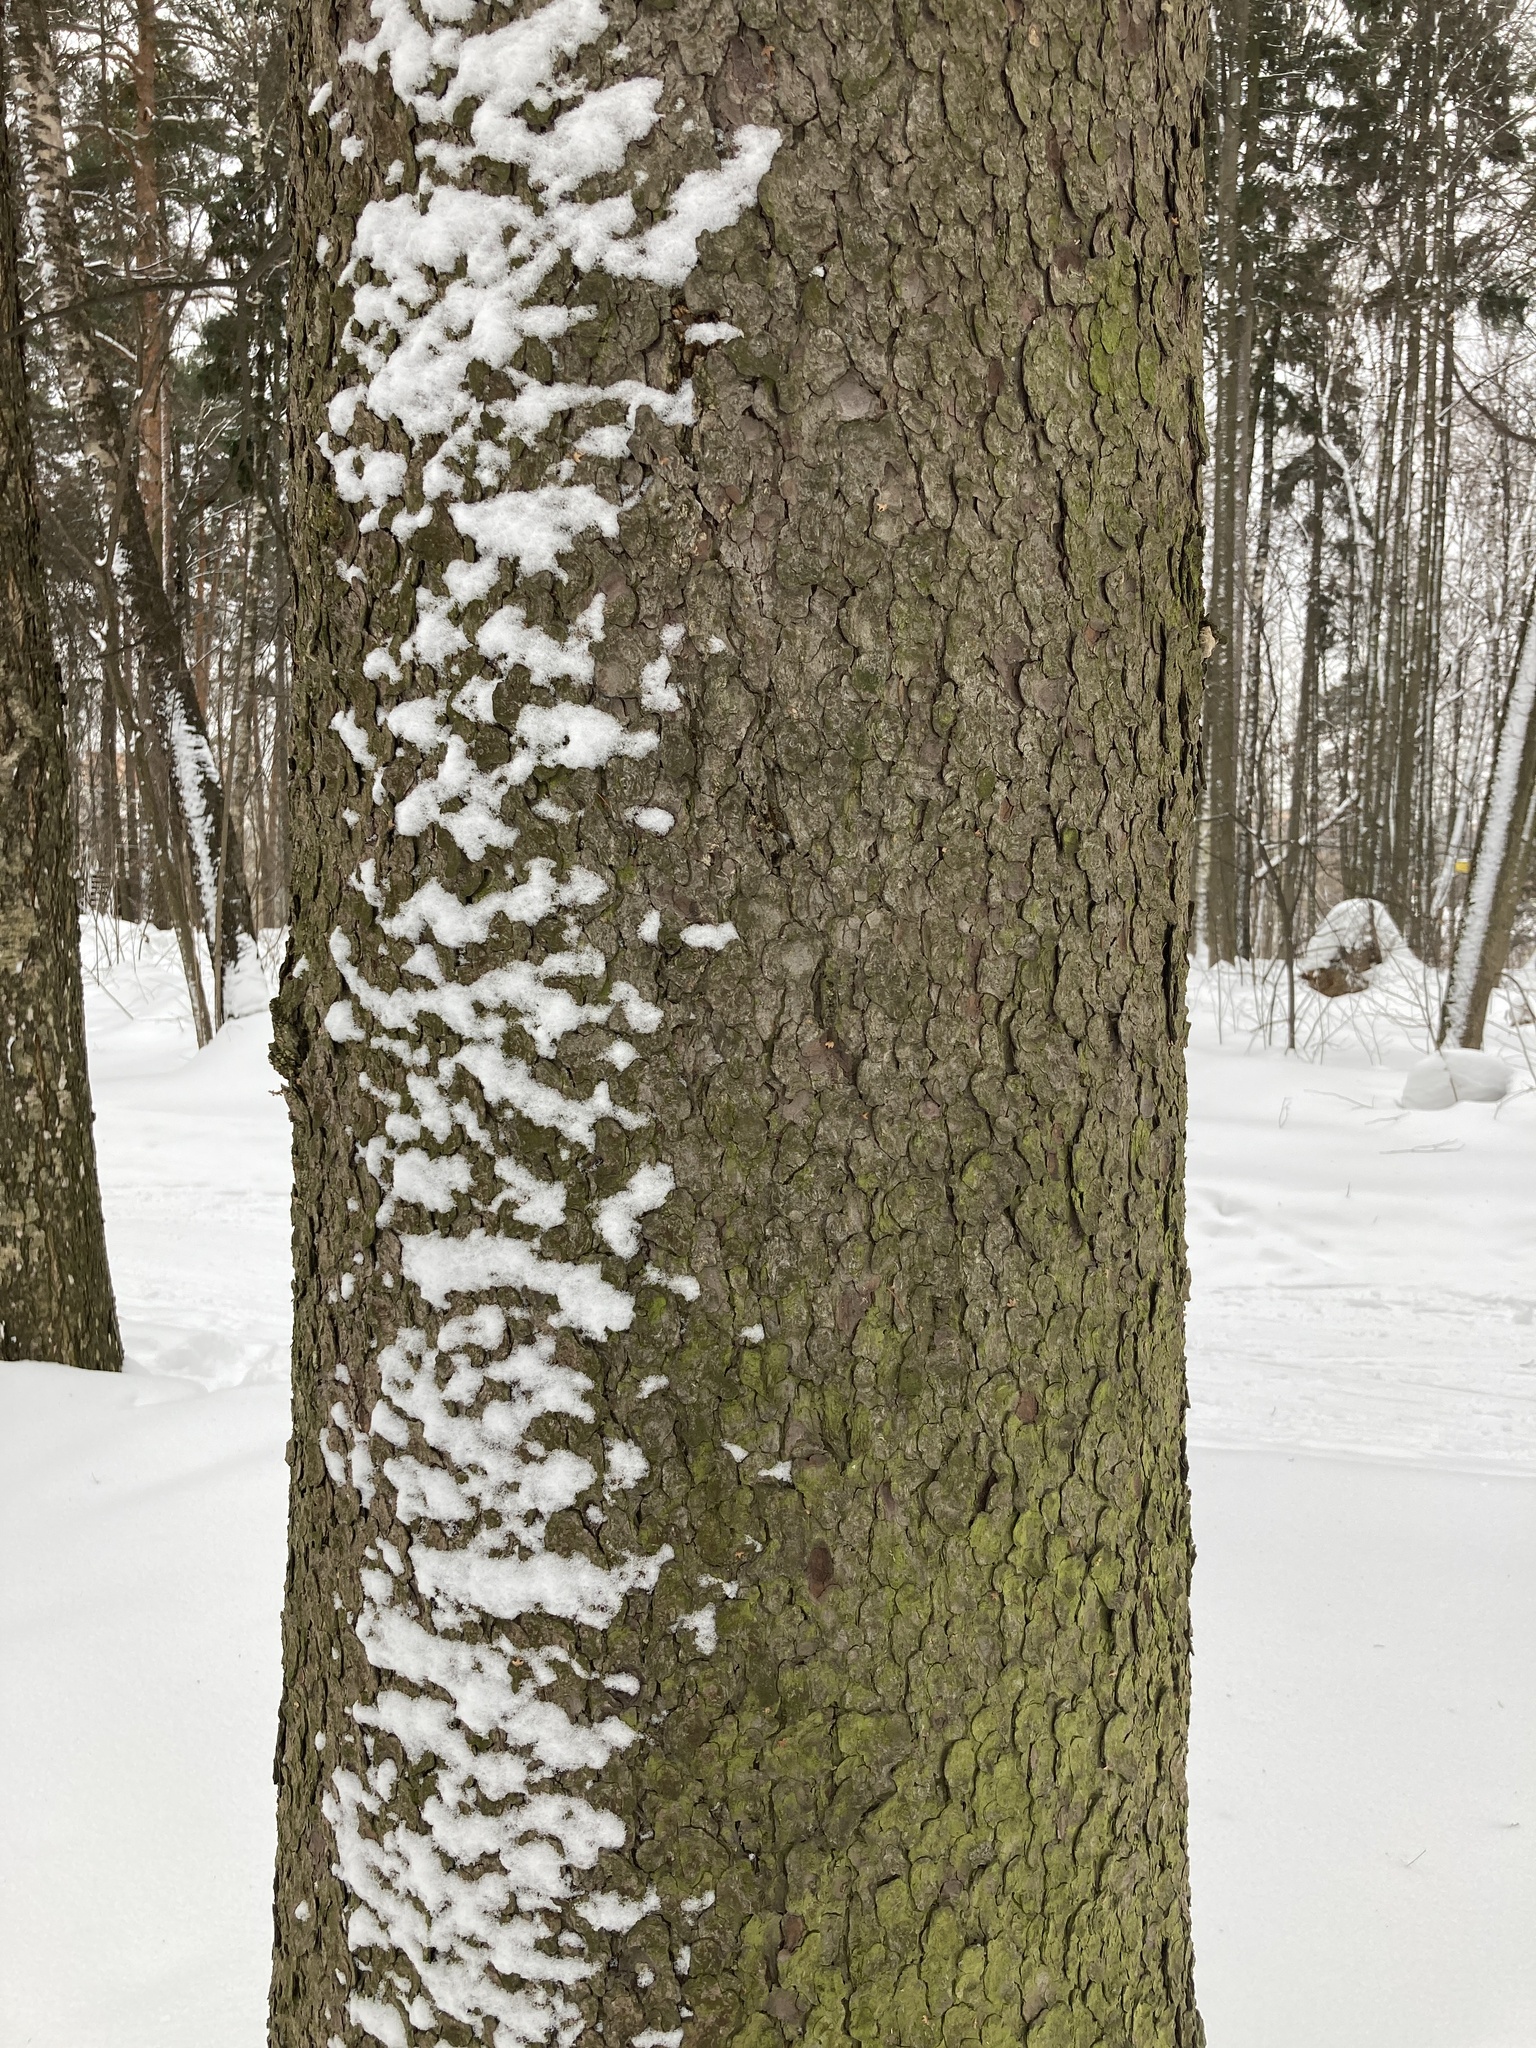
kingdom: Plantae
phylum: Tracheophyta
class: Pinopsida
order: Pinales
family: Pinaceae
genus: Picea
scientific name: Picea abies
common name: Norway spruce
